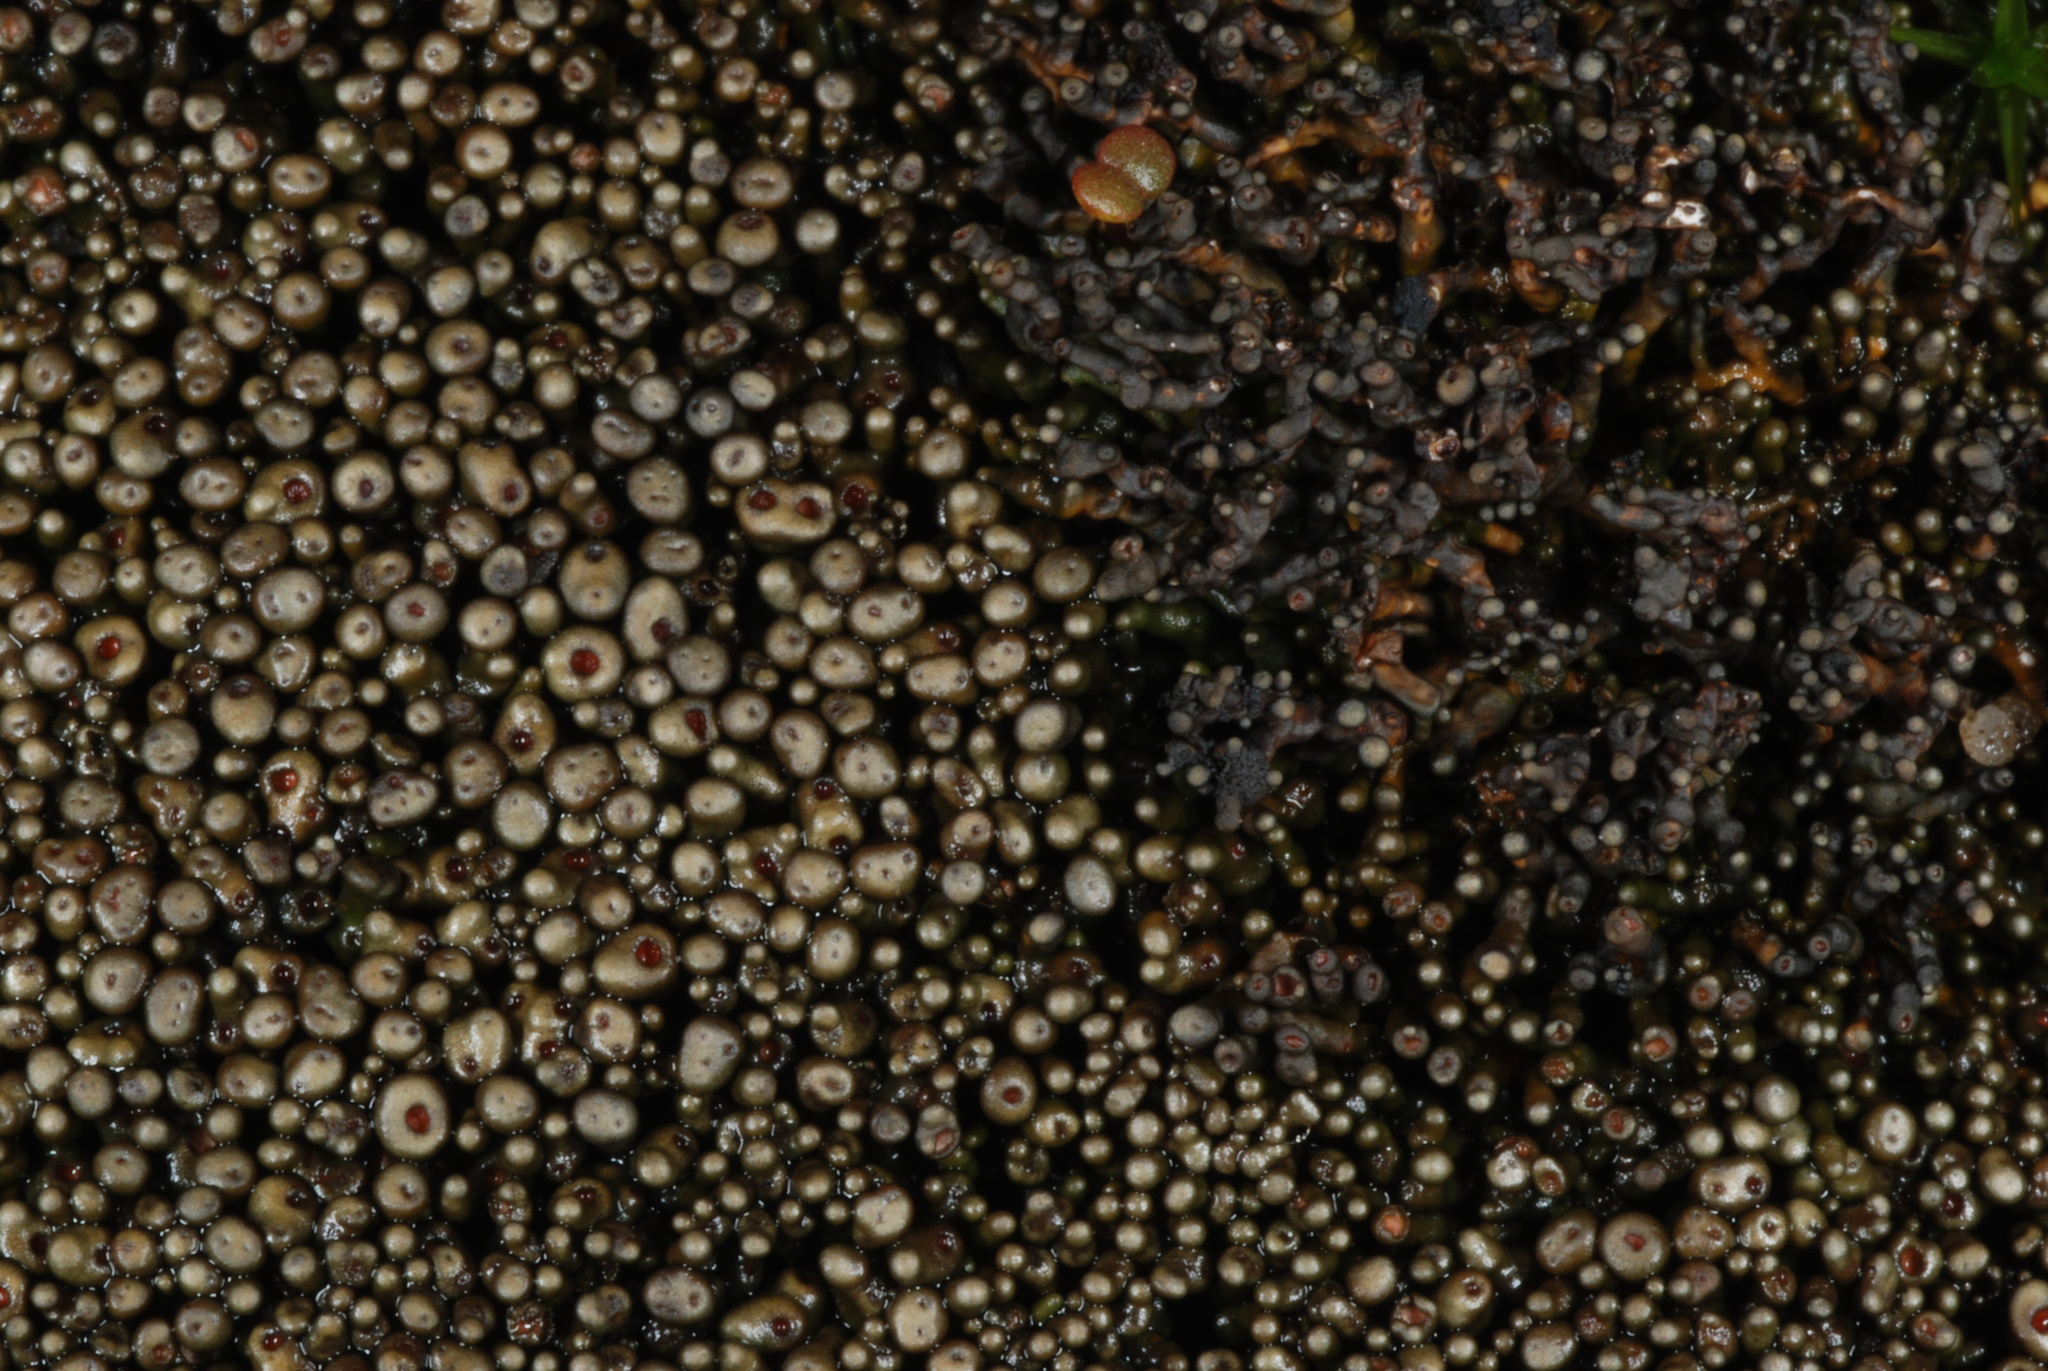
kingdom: Fungi
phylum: Ascomycota
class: Lichinomycetes
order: Lichinales
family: Peltulaceae
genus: Peltula
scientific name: Peltula cylindrica
